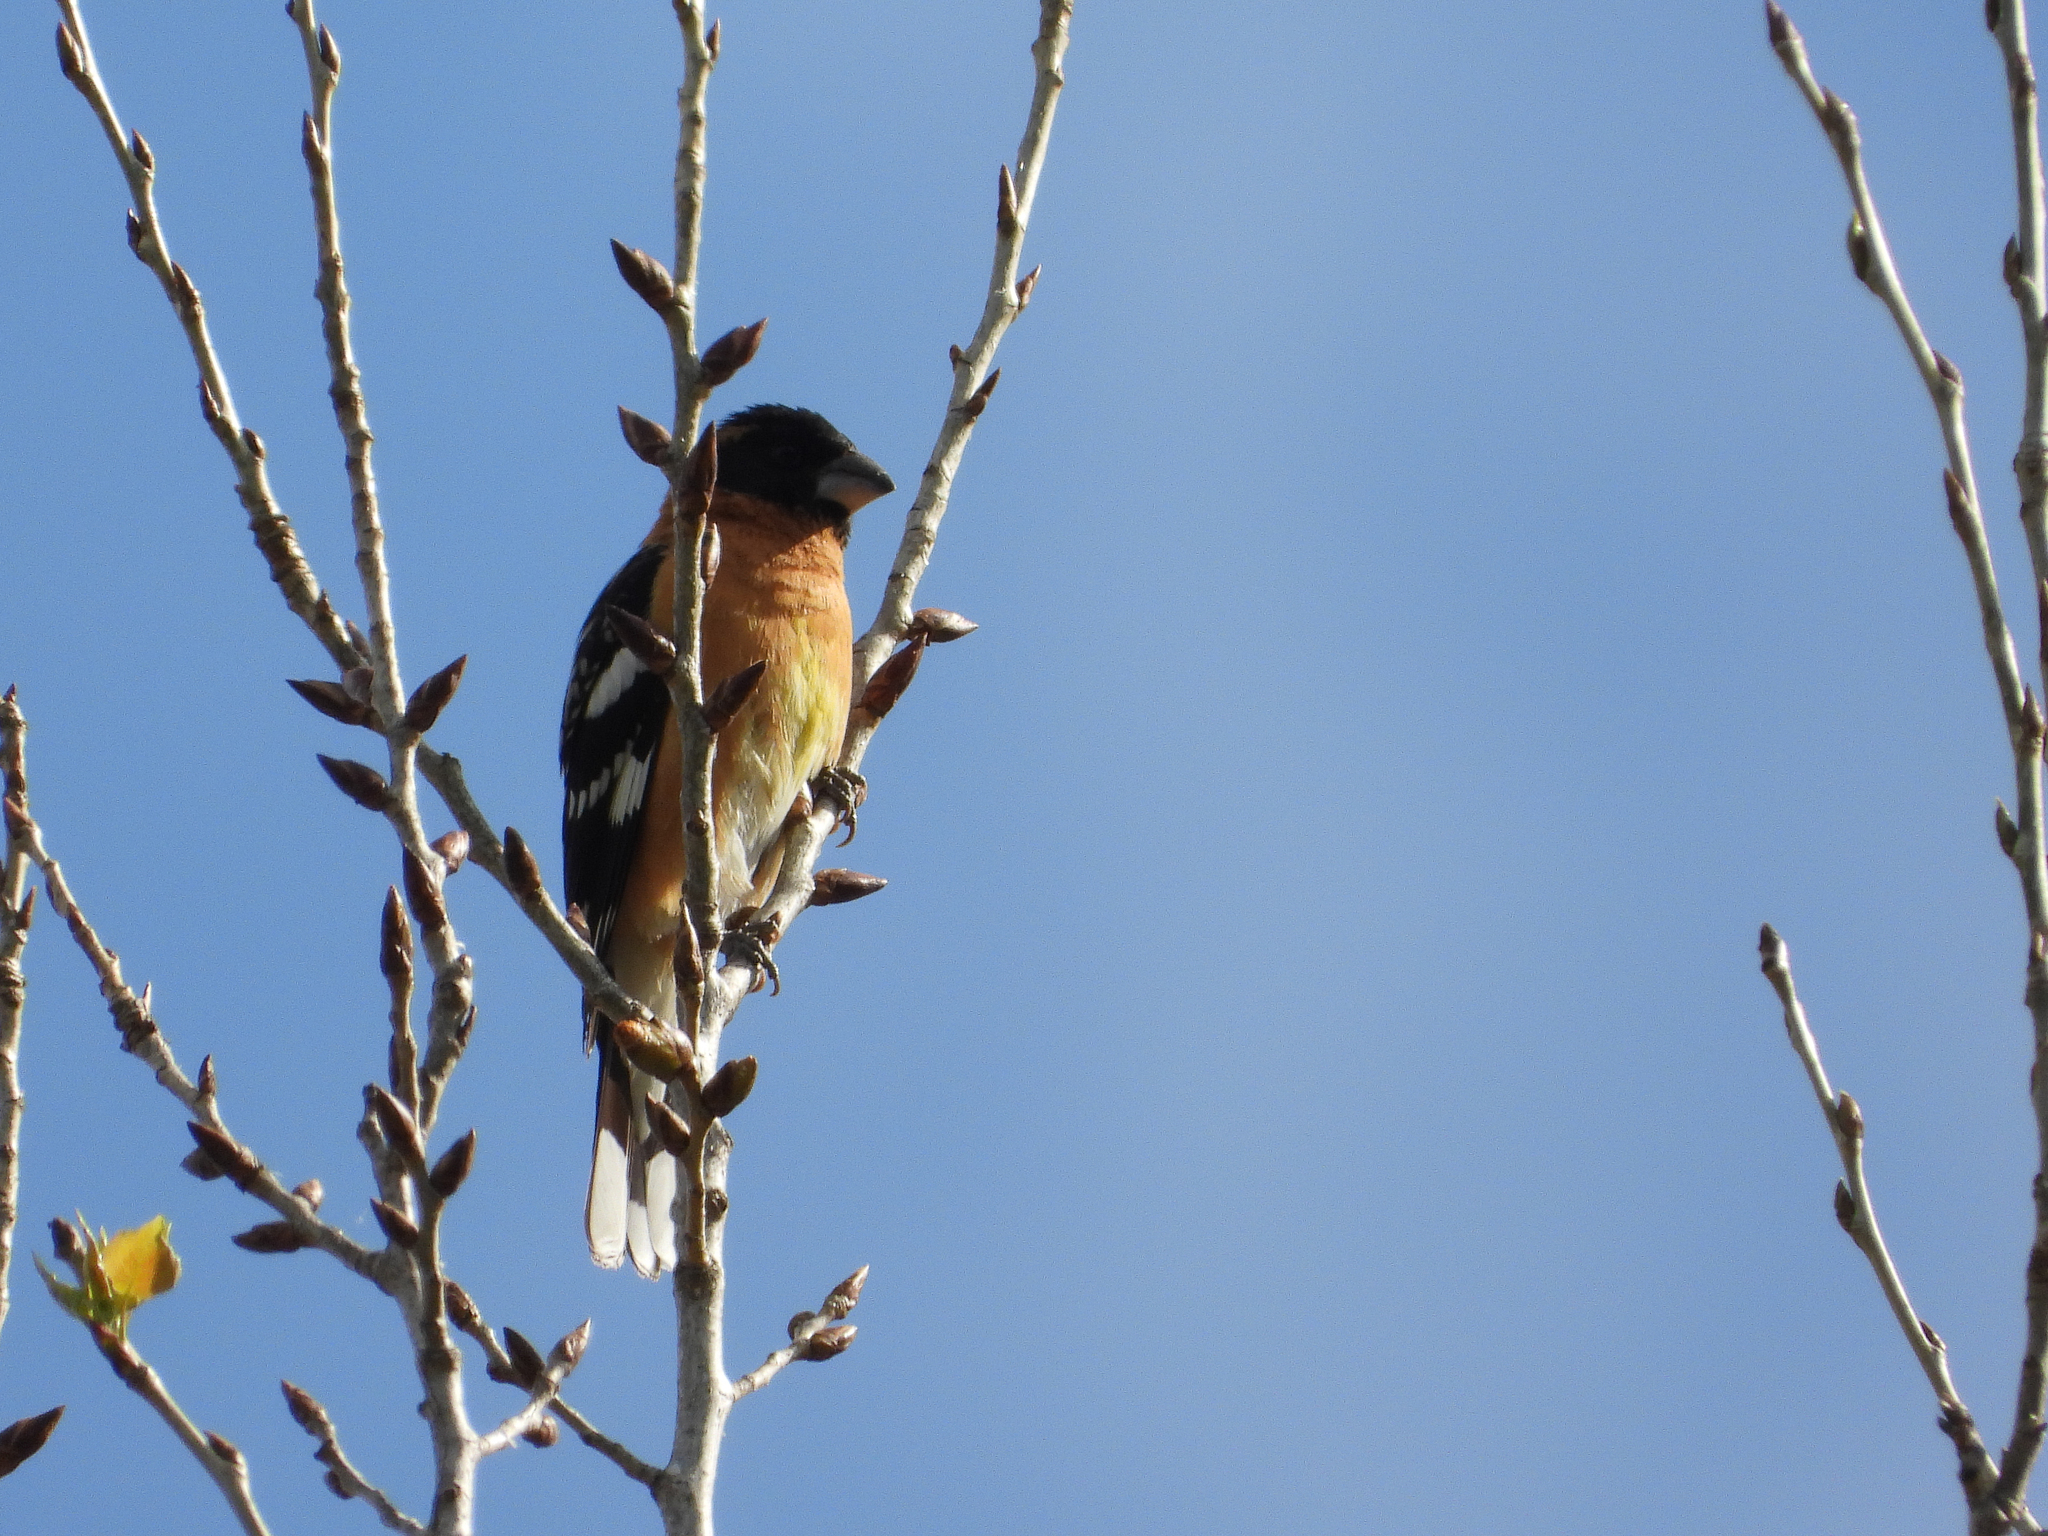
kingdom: Animalia
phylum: Chordata
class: Aves
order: Passeriformes
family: Cardinalidae
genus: Pheucticus
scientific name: Pheucticus melanocephalus
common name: Black-headed grosbeak
